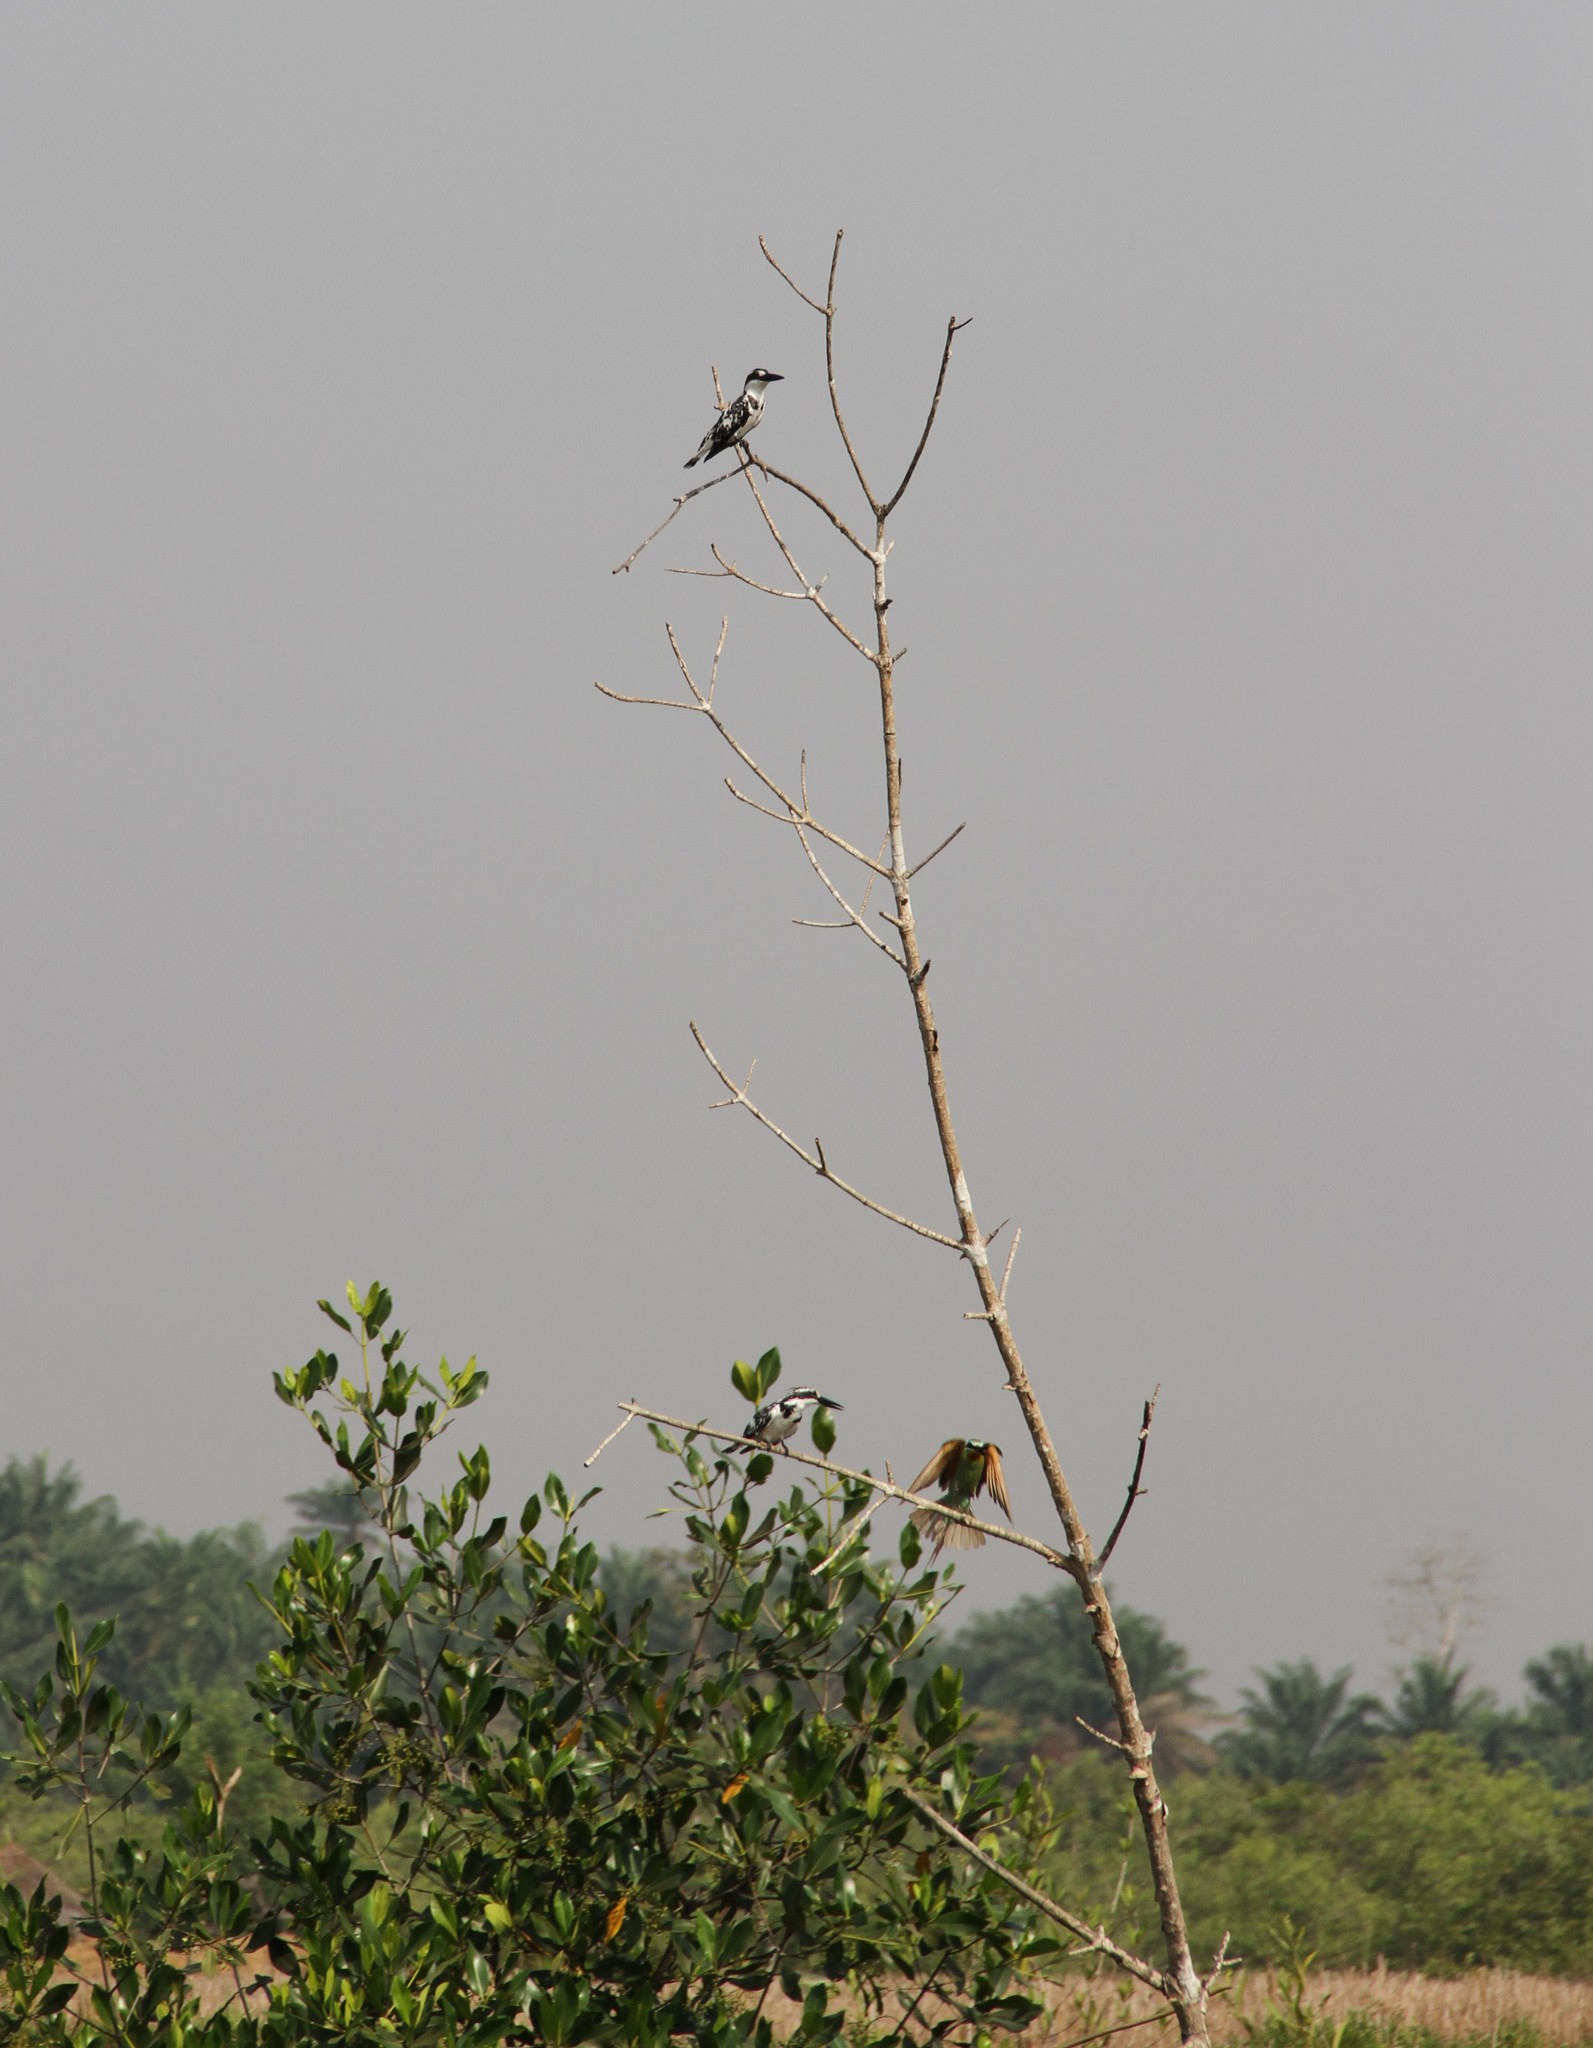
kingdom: Animalia
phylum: Chordata
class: Aves
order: Coraciiformes
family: Alcedinidae
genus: Ceryle
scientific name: Ceryle rudis
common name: Pied kingfisher
